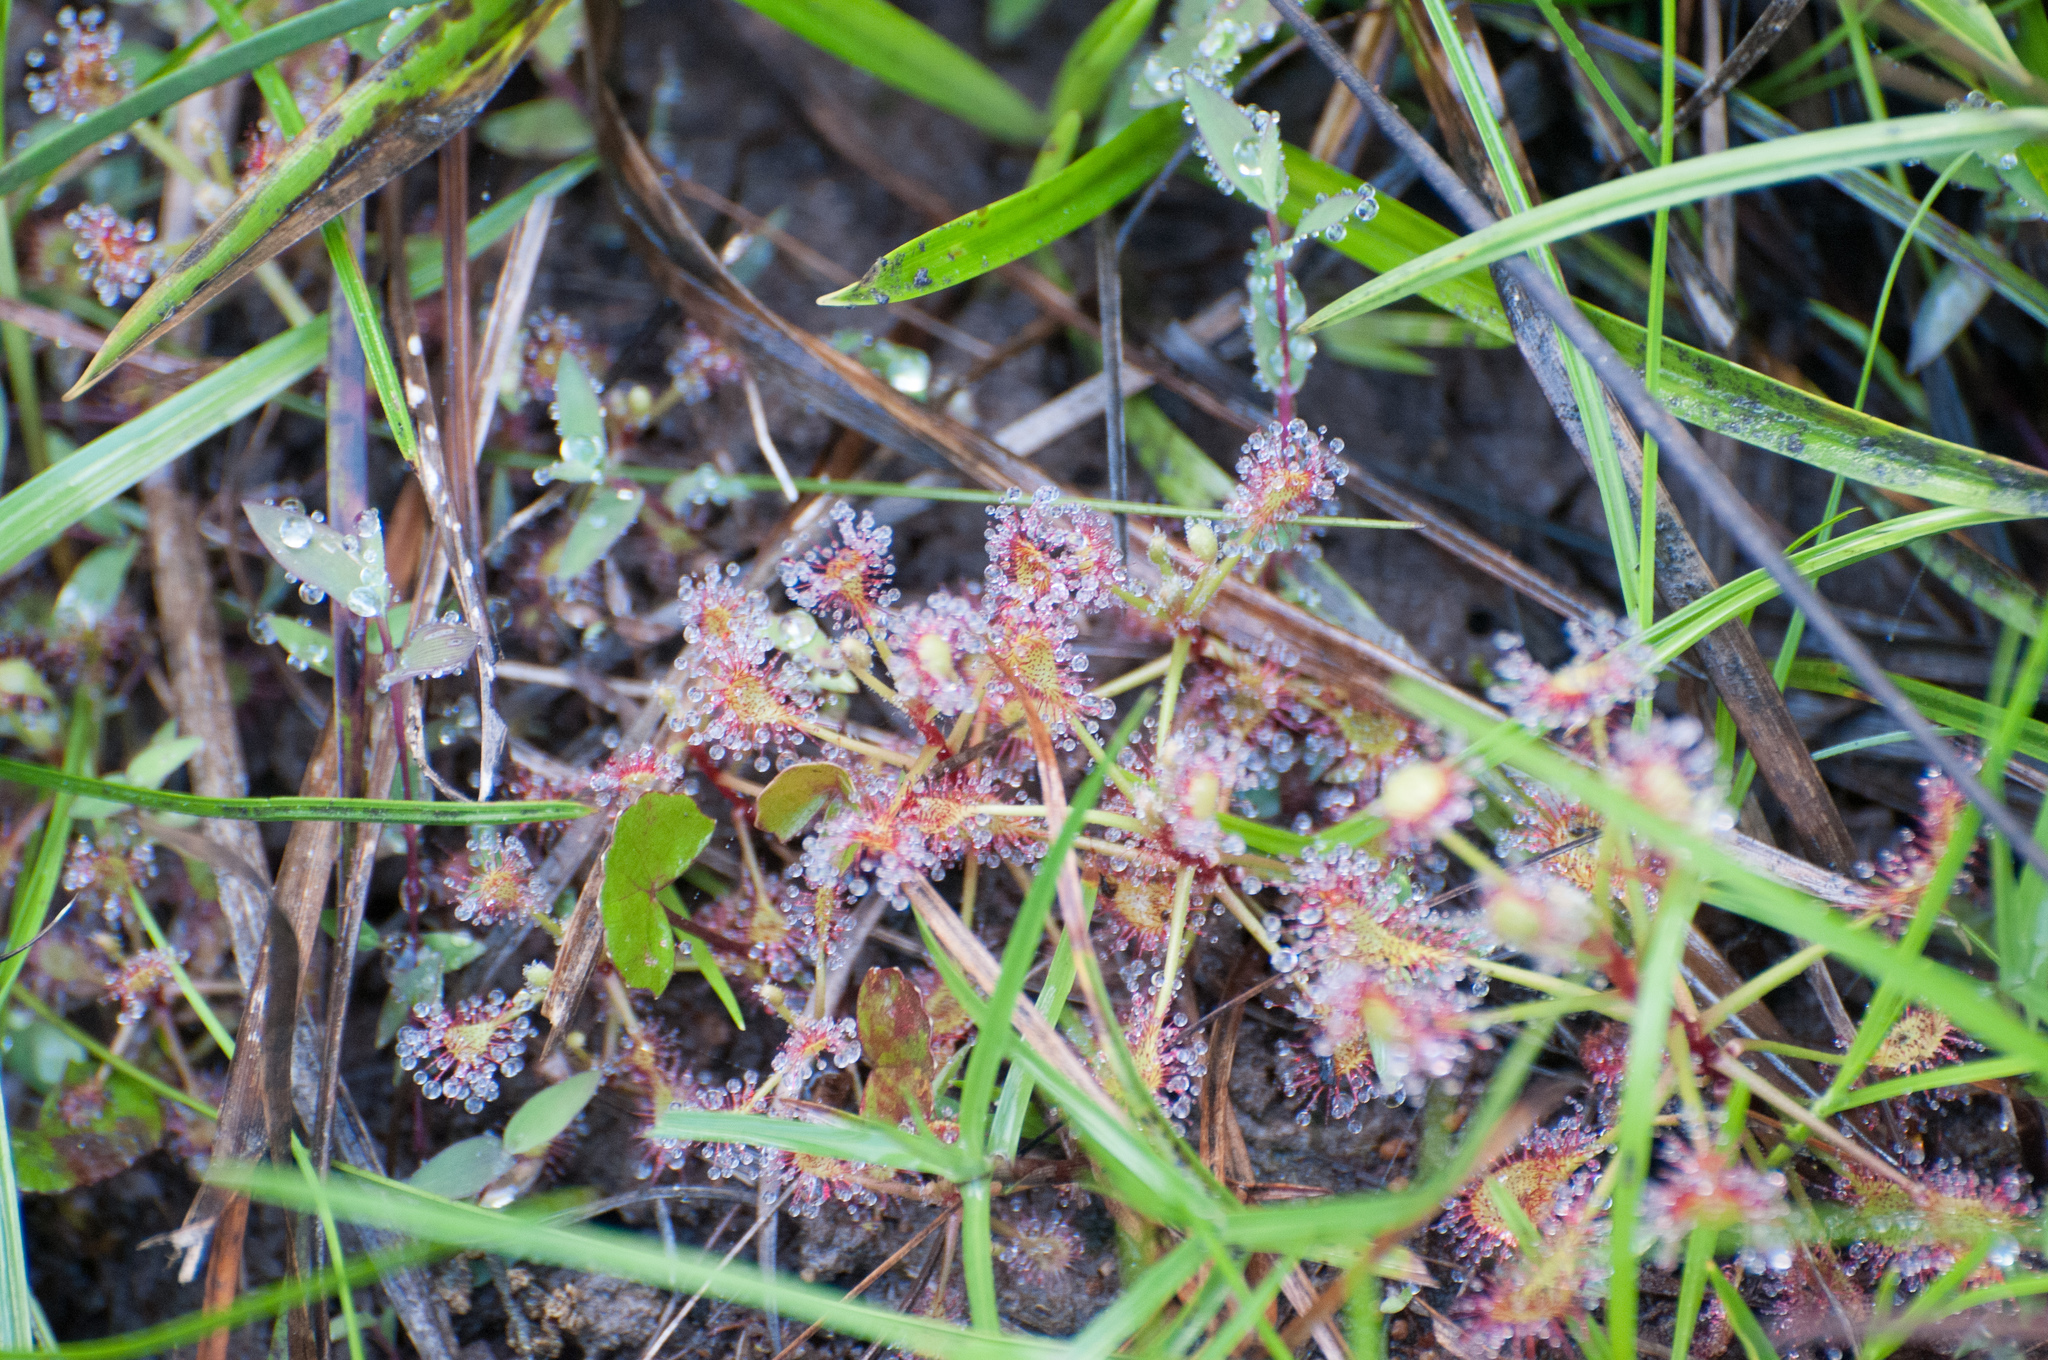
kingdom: Plantae
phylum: Tracheophyta
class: Magnoliopsida
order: Caryophyllales
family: Droseraceae
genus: Drosera
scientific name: Drosera madagascariensis
